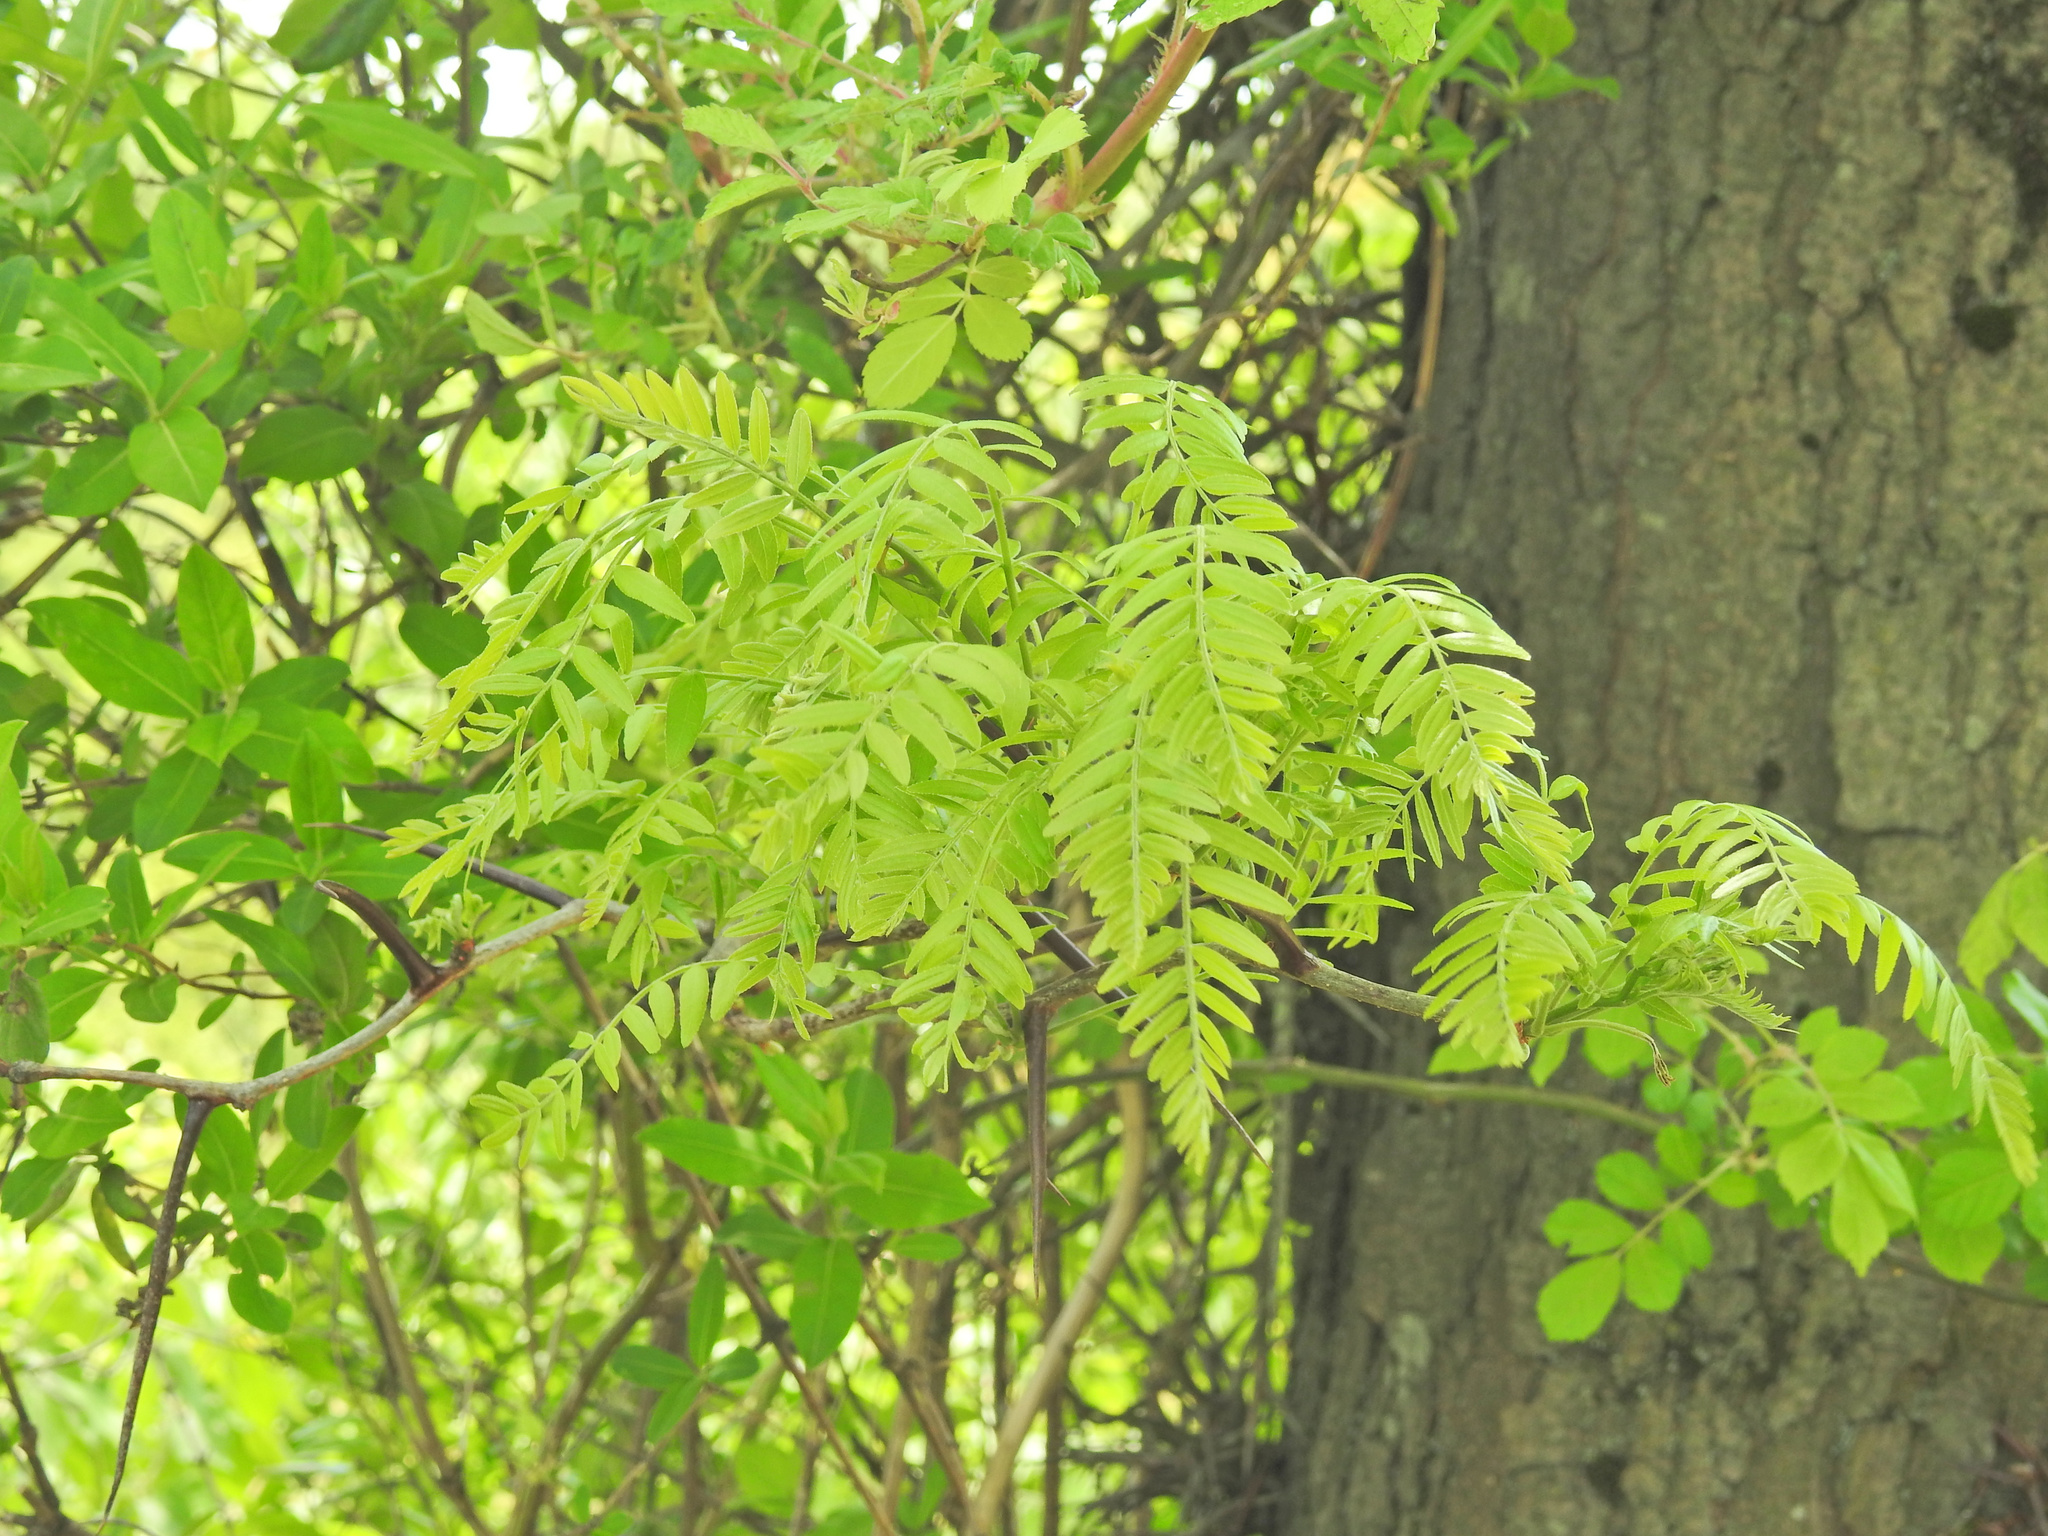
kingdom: Plantae
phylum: Tracheophyta
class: Magnoliopsida
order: Fabales
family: Fabaceae
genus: Gleditsia
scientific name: Gleditsia triacanthos
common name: Common honeylocust
